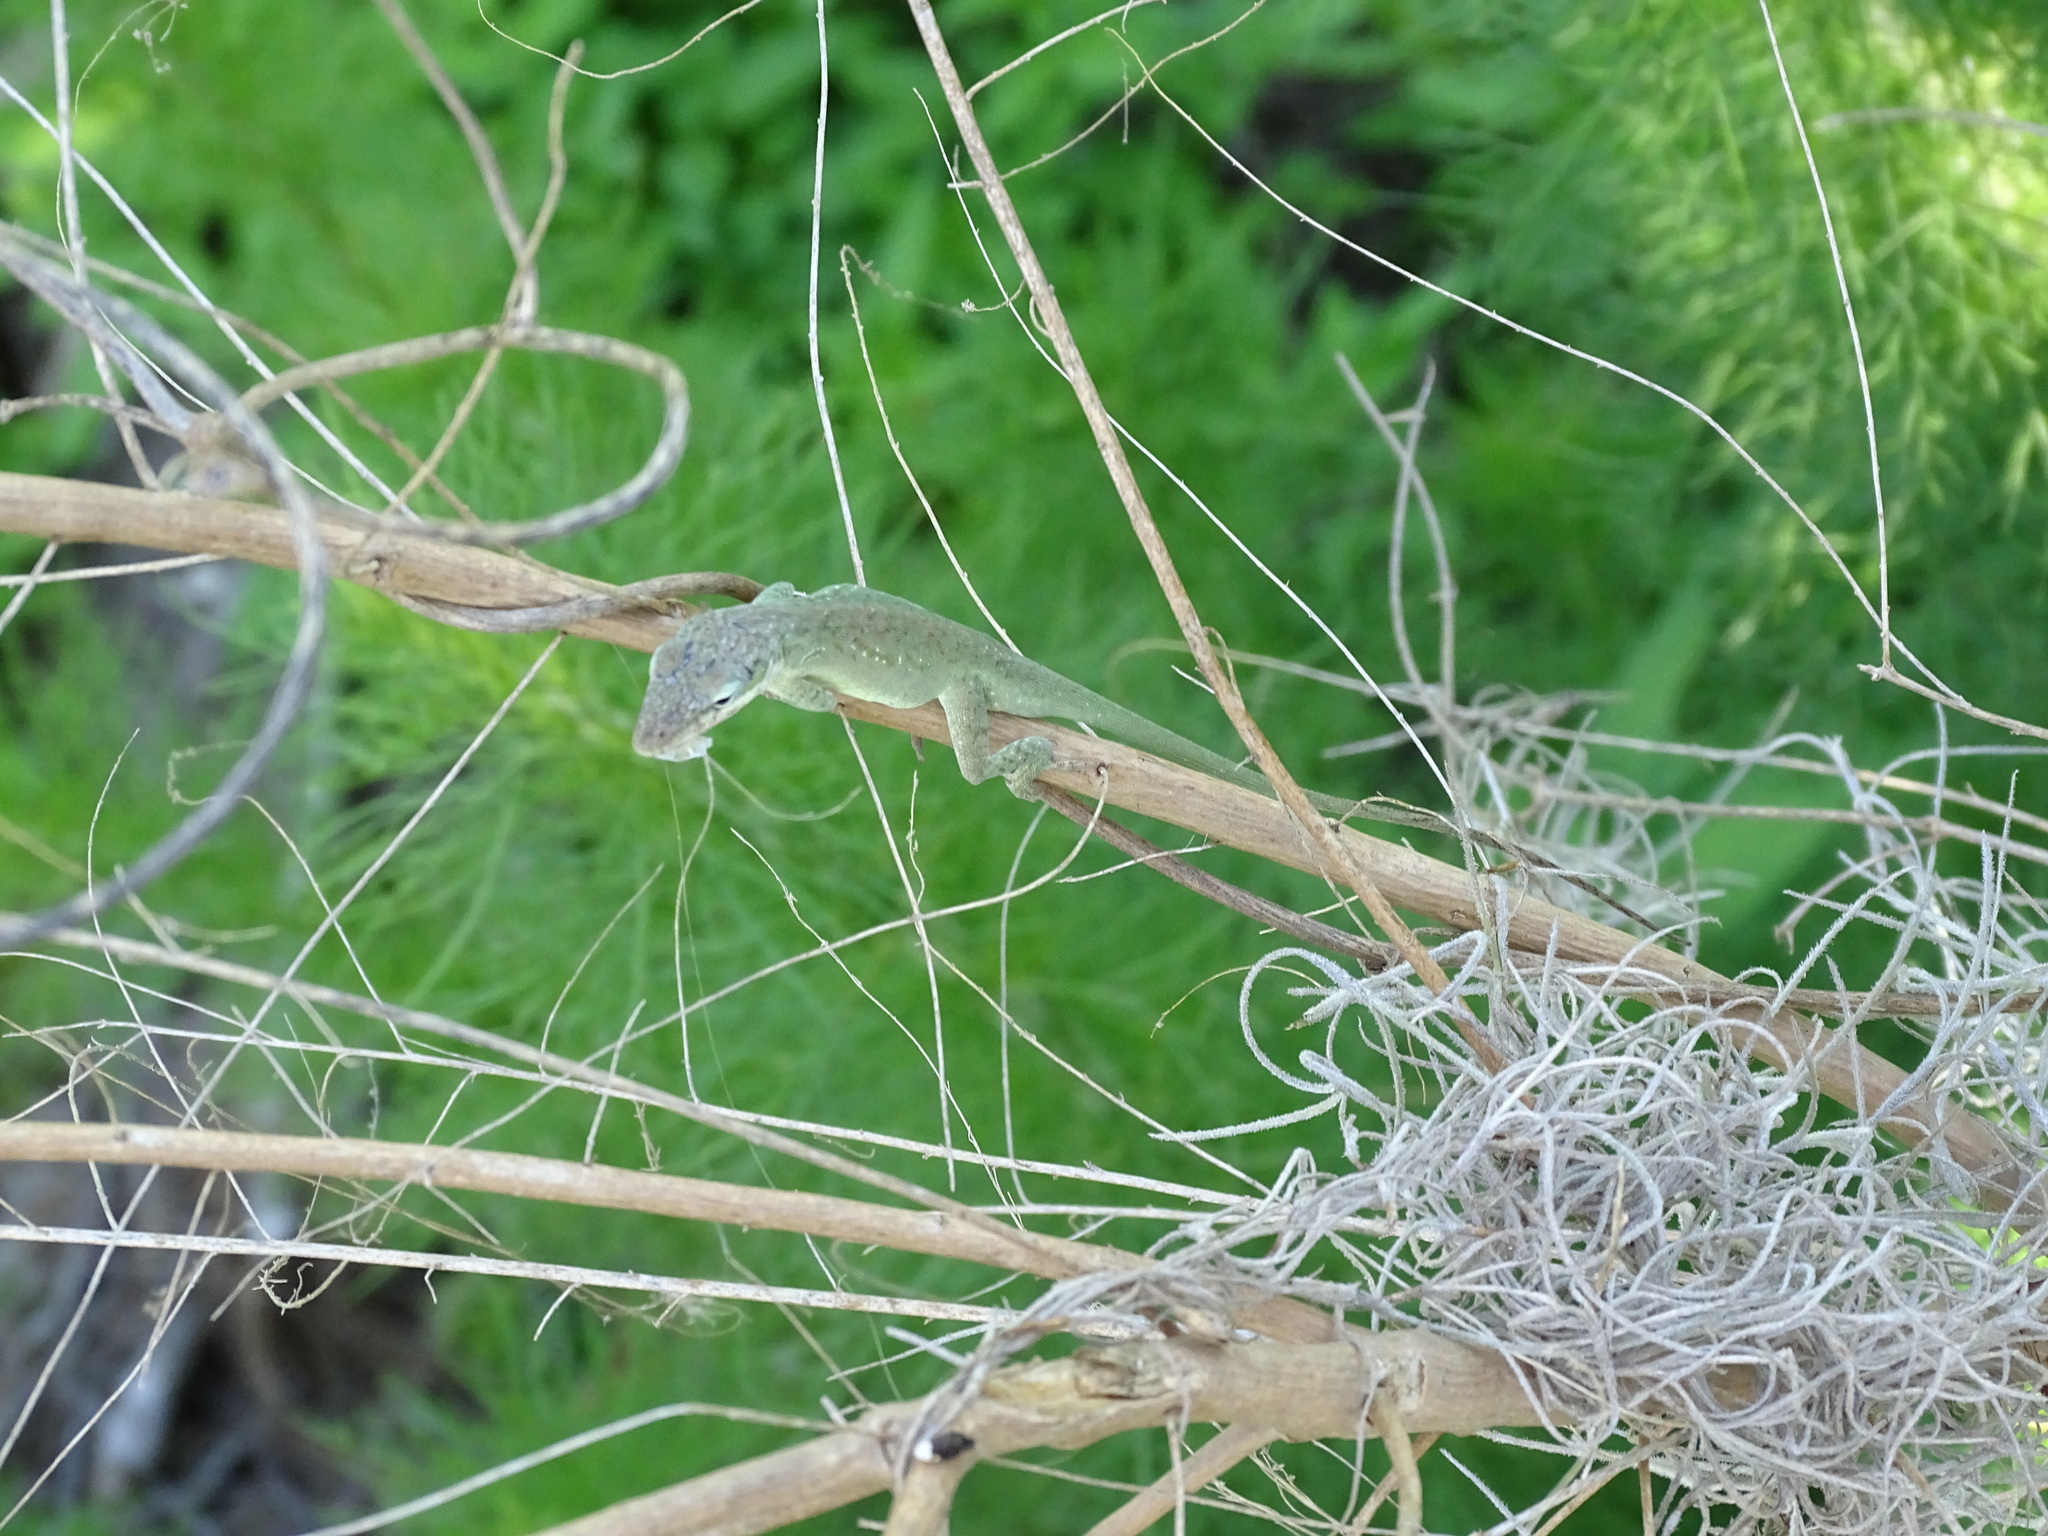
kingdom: Animalia
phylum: Chordata
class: Squamata
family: Dactyloidae
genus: Anolis
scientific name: Anolis carolinensis
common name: Green anole
